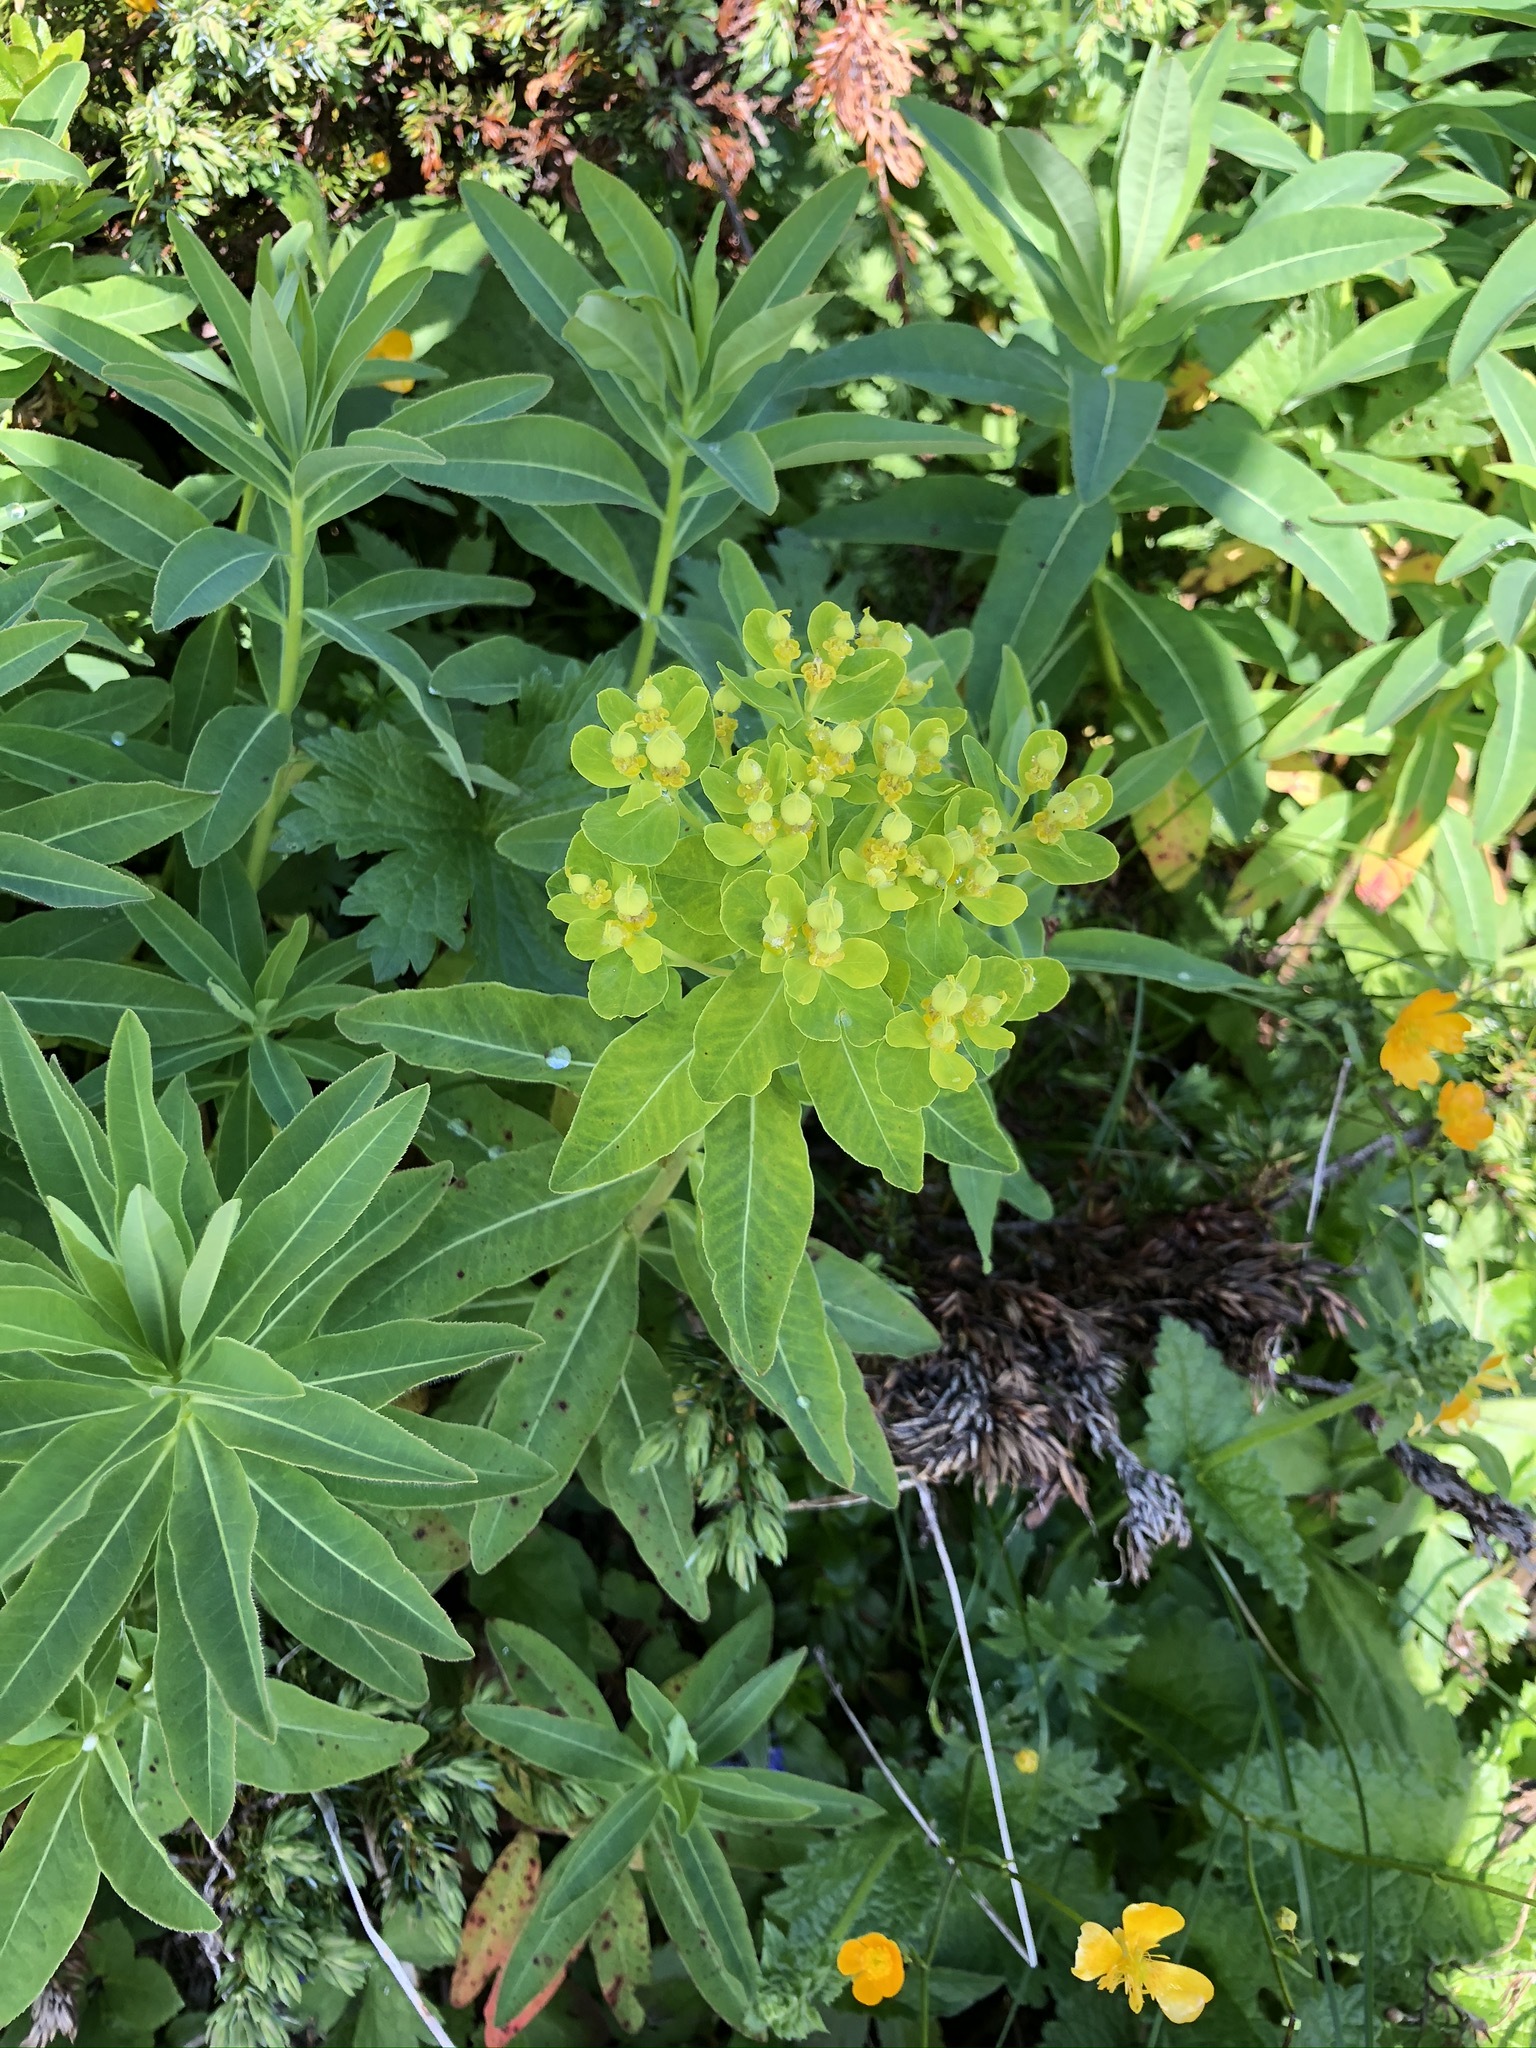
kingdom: Plantae
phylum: Tracheophyta
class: Magnoliopsida
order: Malpighiales
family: Euphorbiaceae
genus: Euphorbia
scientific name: Euphorbia austriaca
